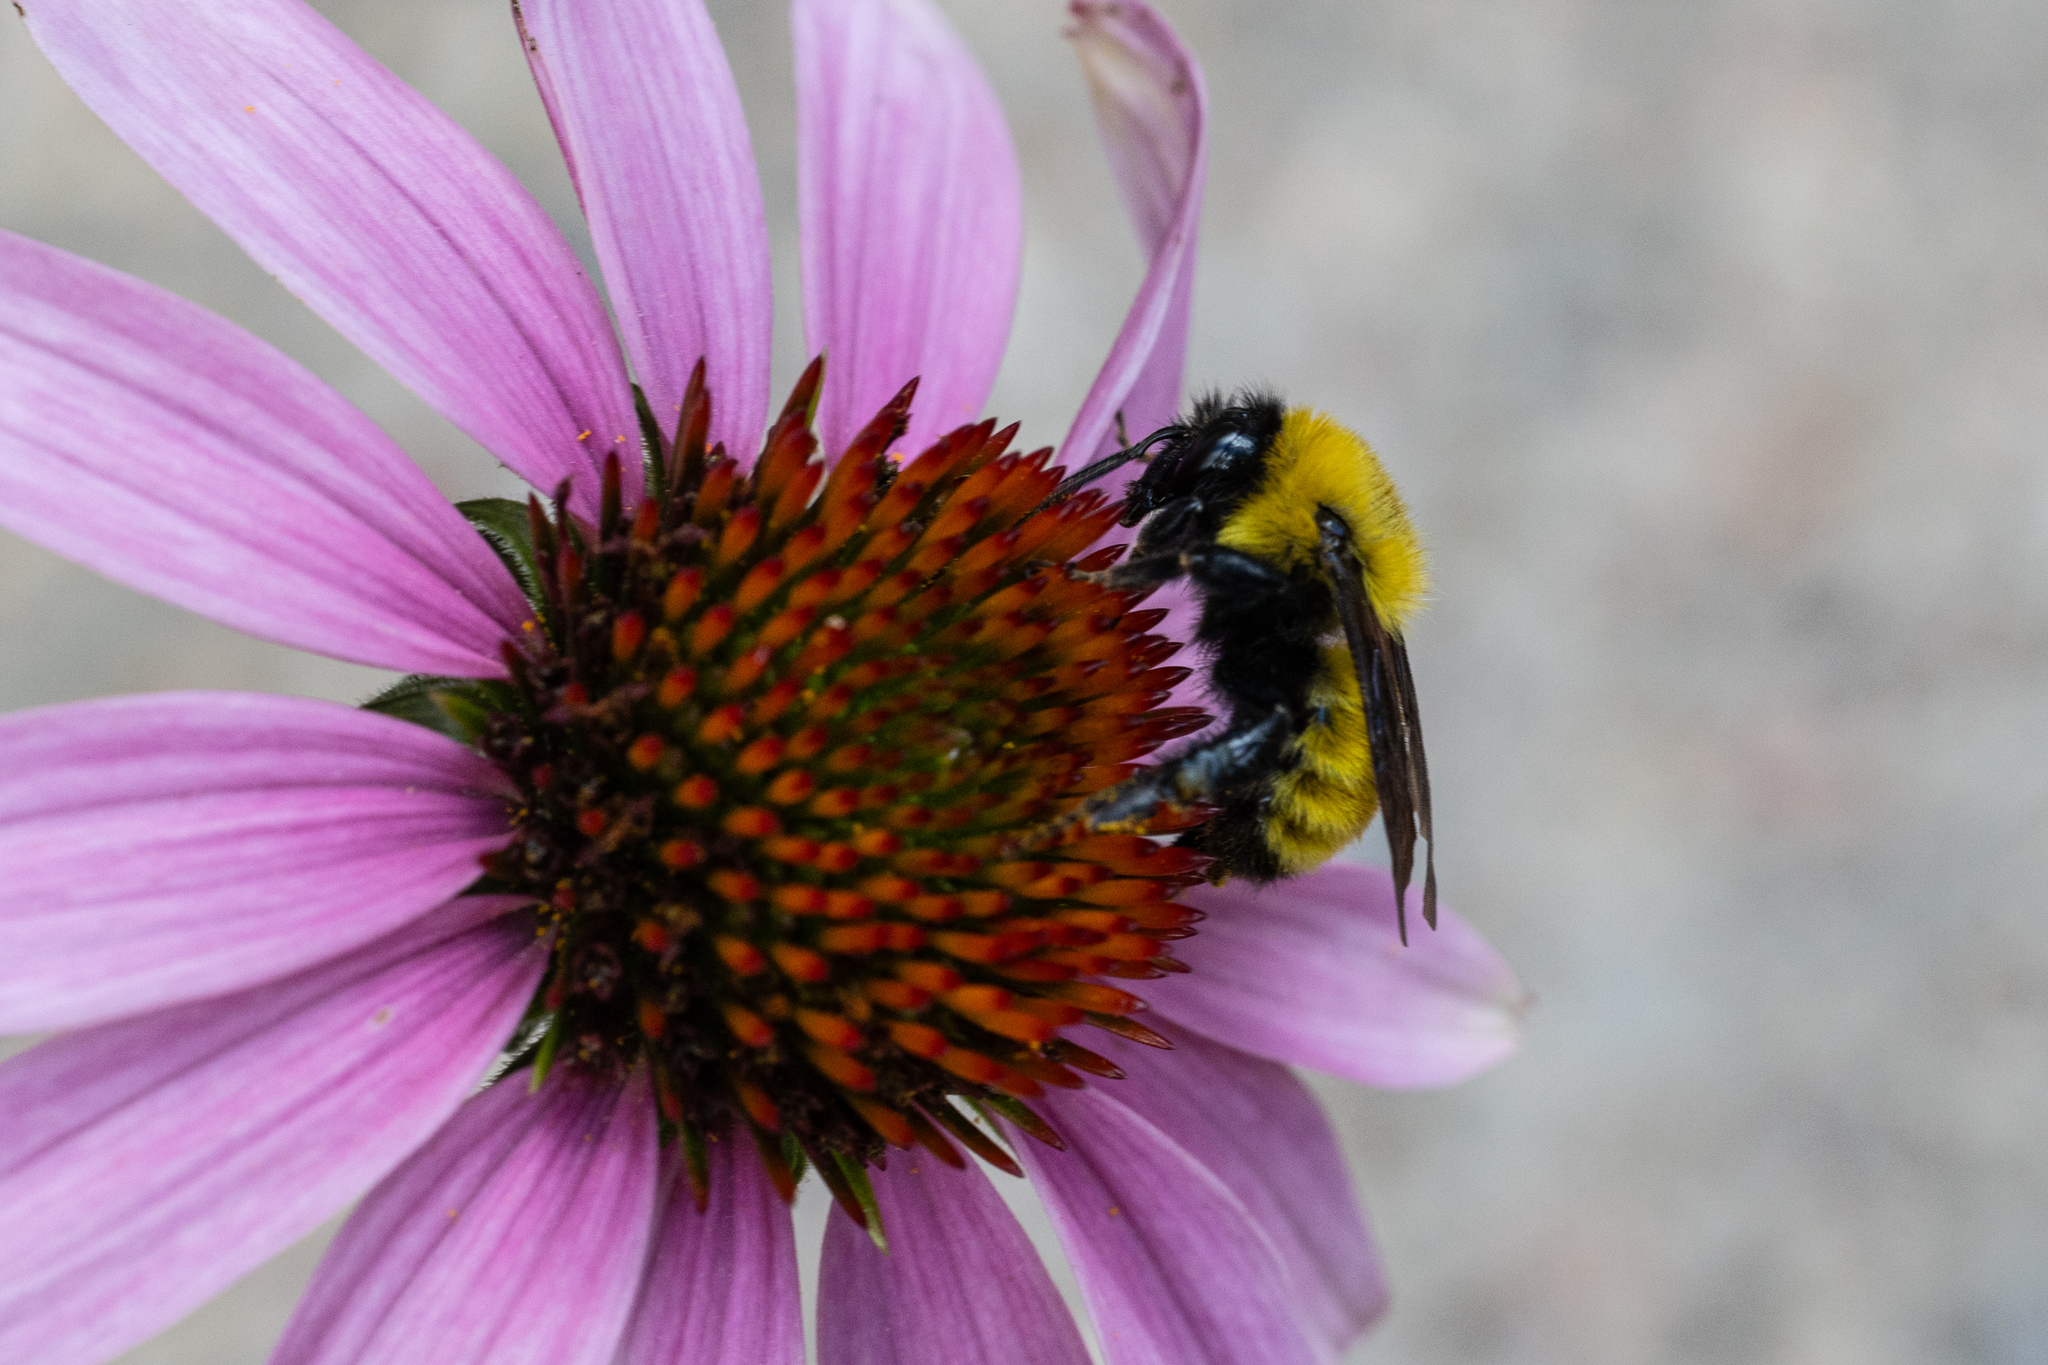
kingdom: Animalia
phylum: Arthropoda
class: Insecta
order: Hymenoptera
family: Apidae
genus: Bombus
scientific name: Bombus fervidus
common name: Yellow bumble bee
